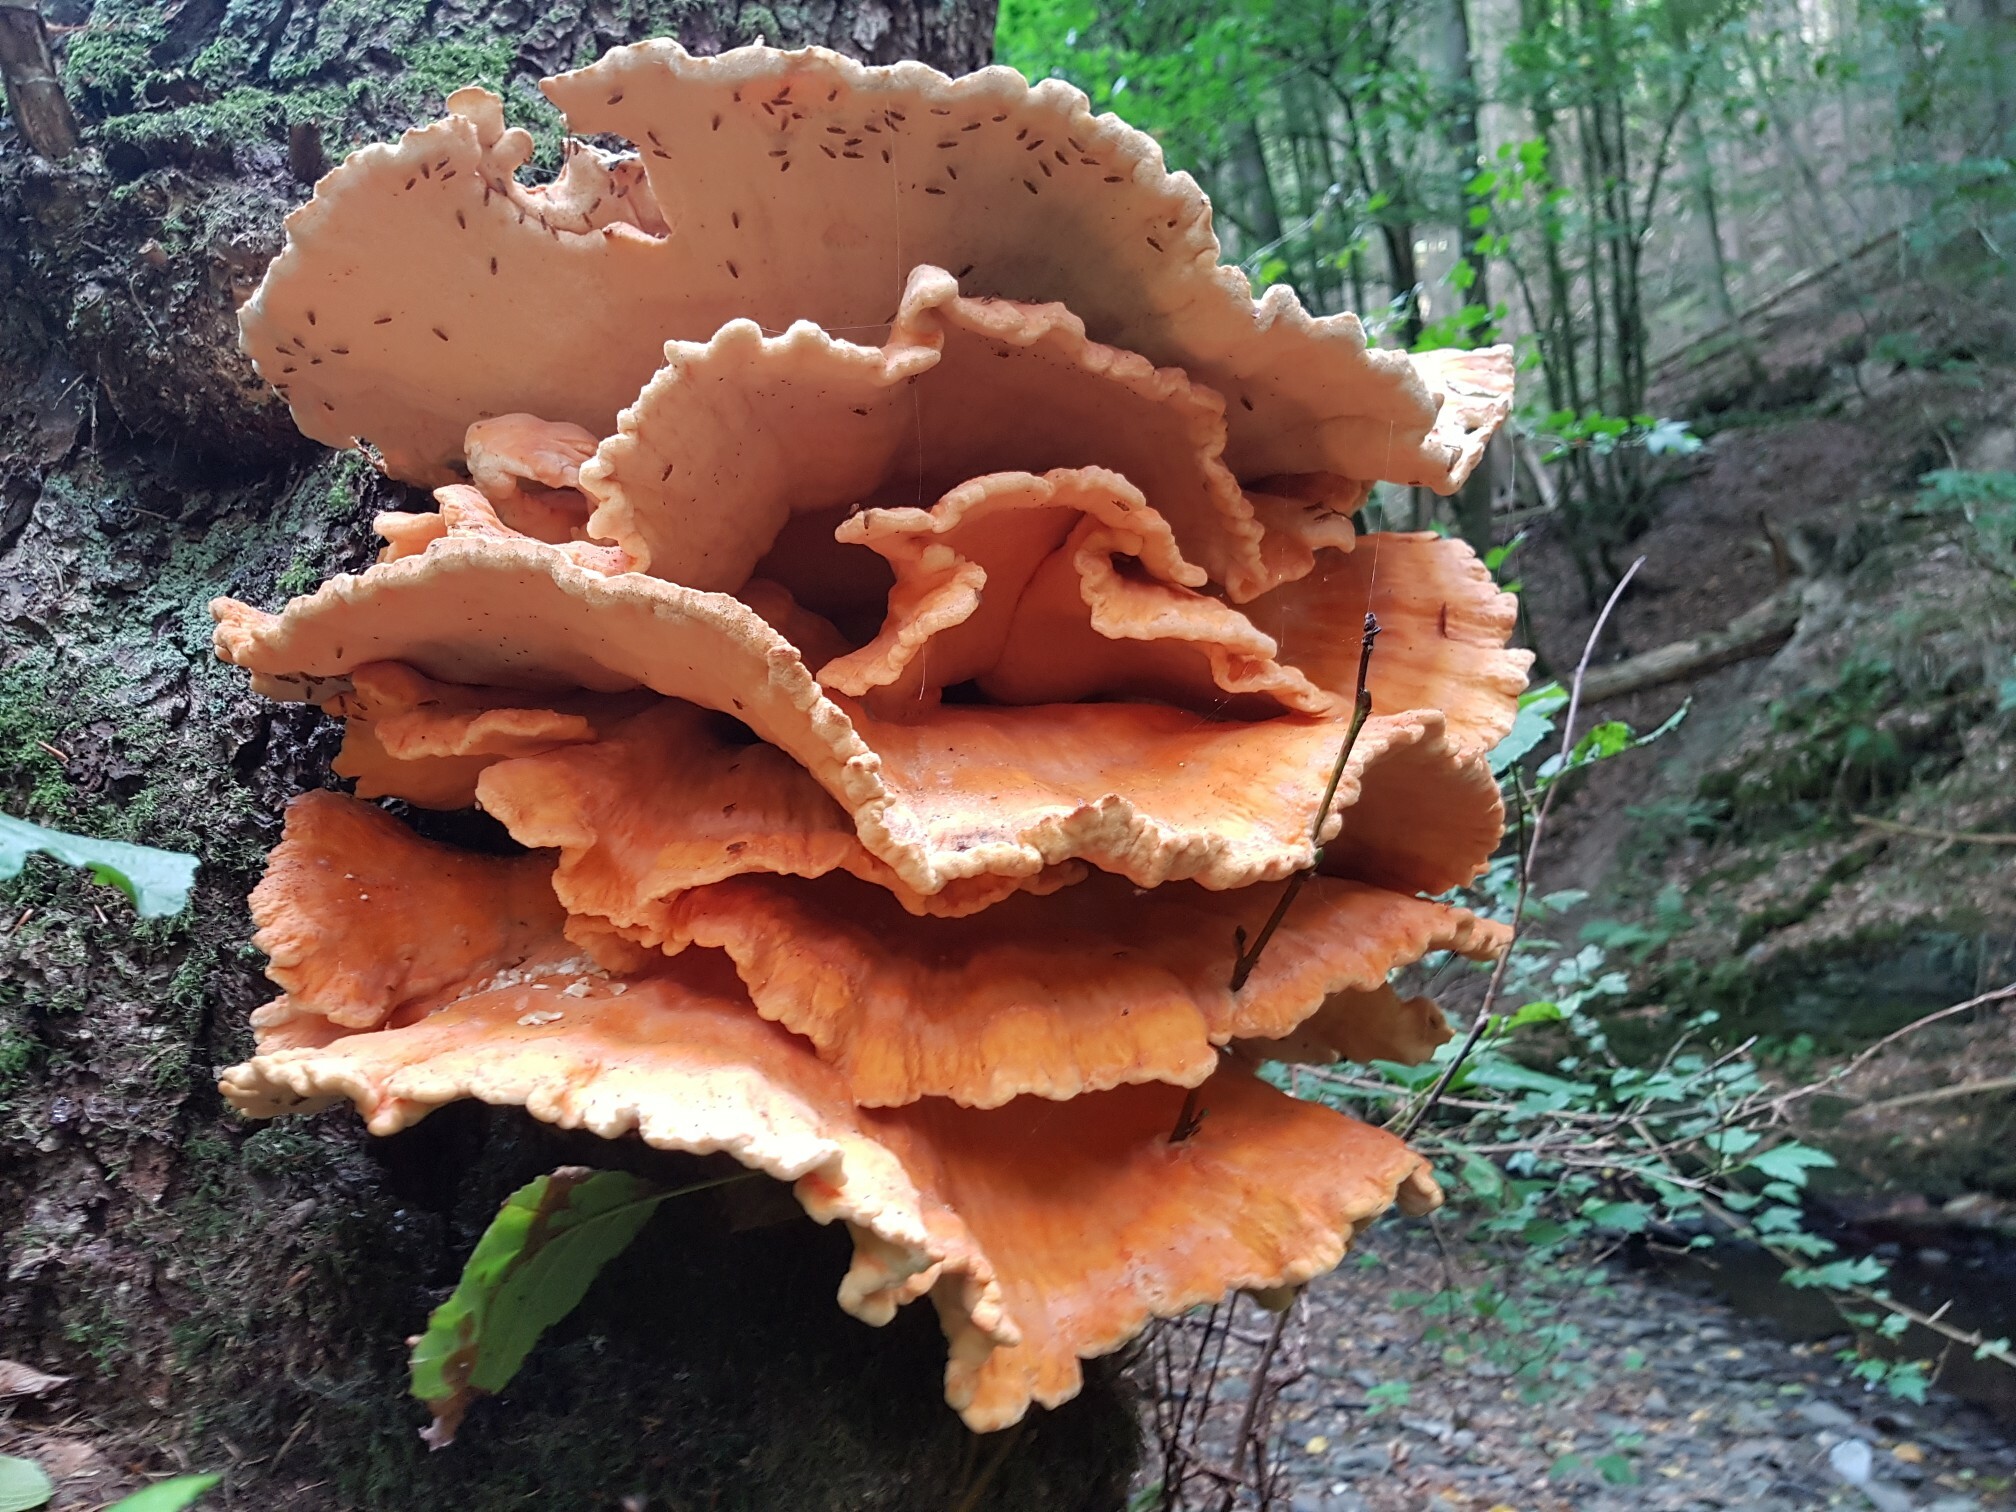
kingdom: Fungi
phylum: Basidiomycota
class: Agaricomycetes
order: Polyporales
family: Laetiporaceae
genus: Laetiporus
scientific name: Laetiporus sulphureus
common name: Chicken of the woods
